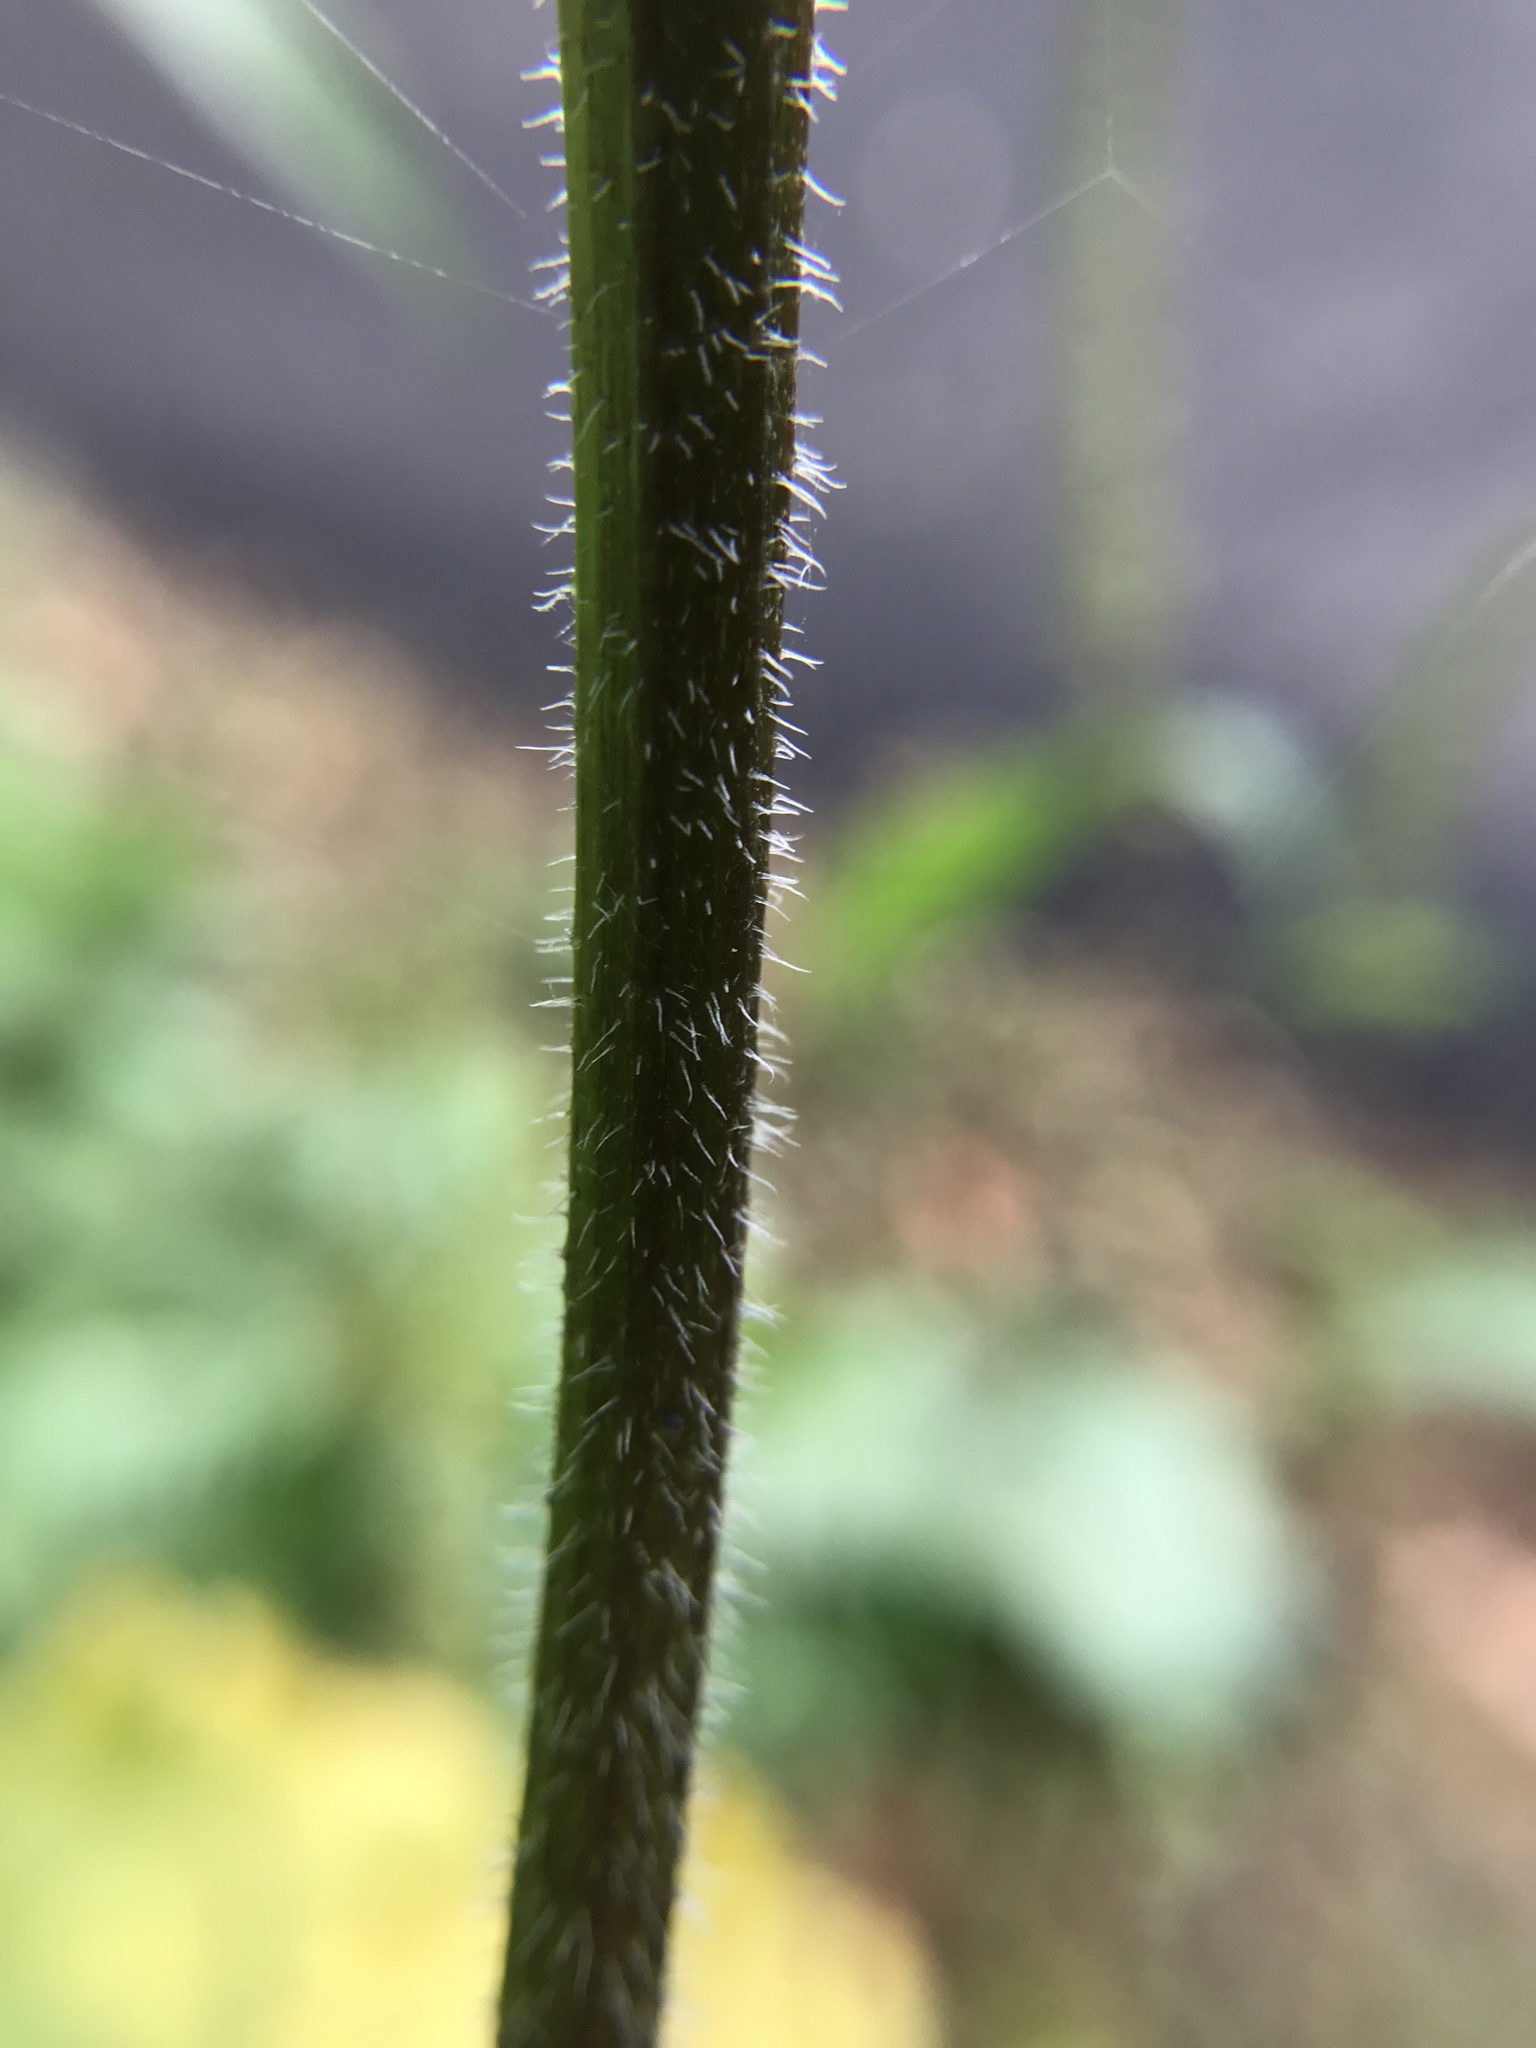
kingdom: Plantae
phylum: Tracheophyta
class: Magnoliopsida
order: Asterales
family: Asteraceae
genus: Ambrosia
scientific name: Ambrosia trifida
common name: Giant ragweed
